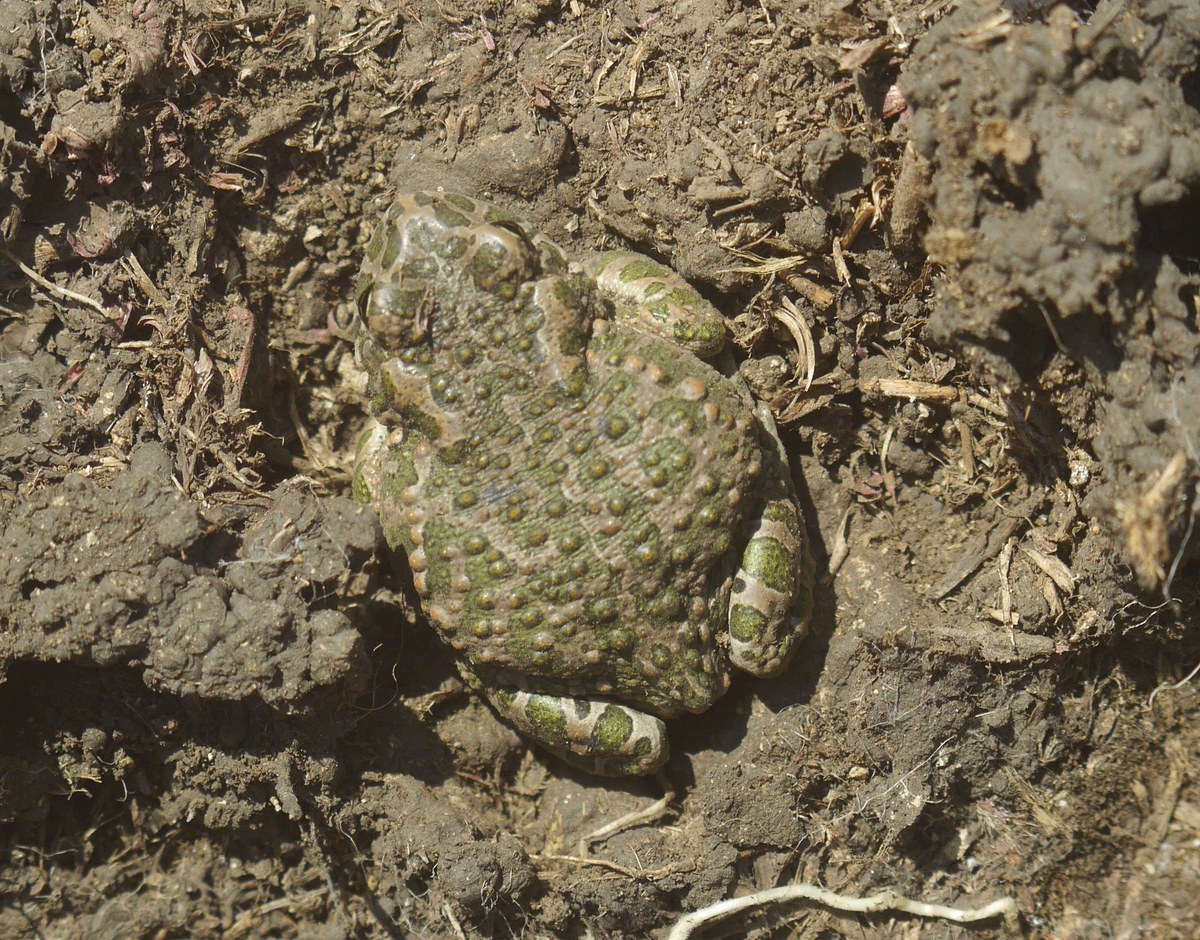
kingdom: Animalia
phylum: Chordata
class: Amphibia
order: Anura
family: Bufonidae
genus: Bufotes
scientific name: Bufotes viridis
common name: European green toad
